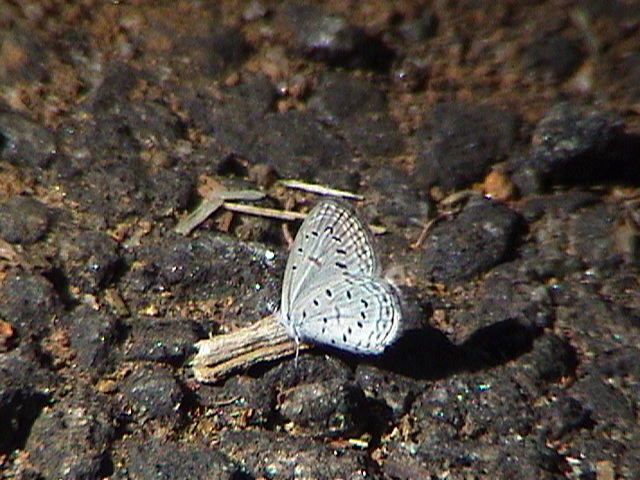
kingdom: Animalia
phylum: Arthropoda
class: Insecta
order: Lepidoptera
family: Lycaenidae
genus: Zizula
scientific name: Zizula hylax
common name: Gaika blue
